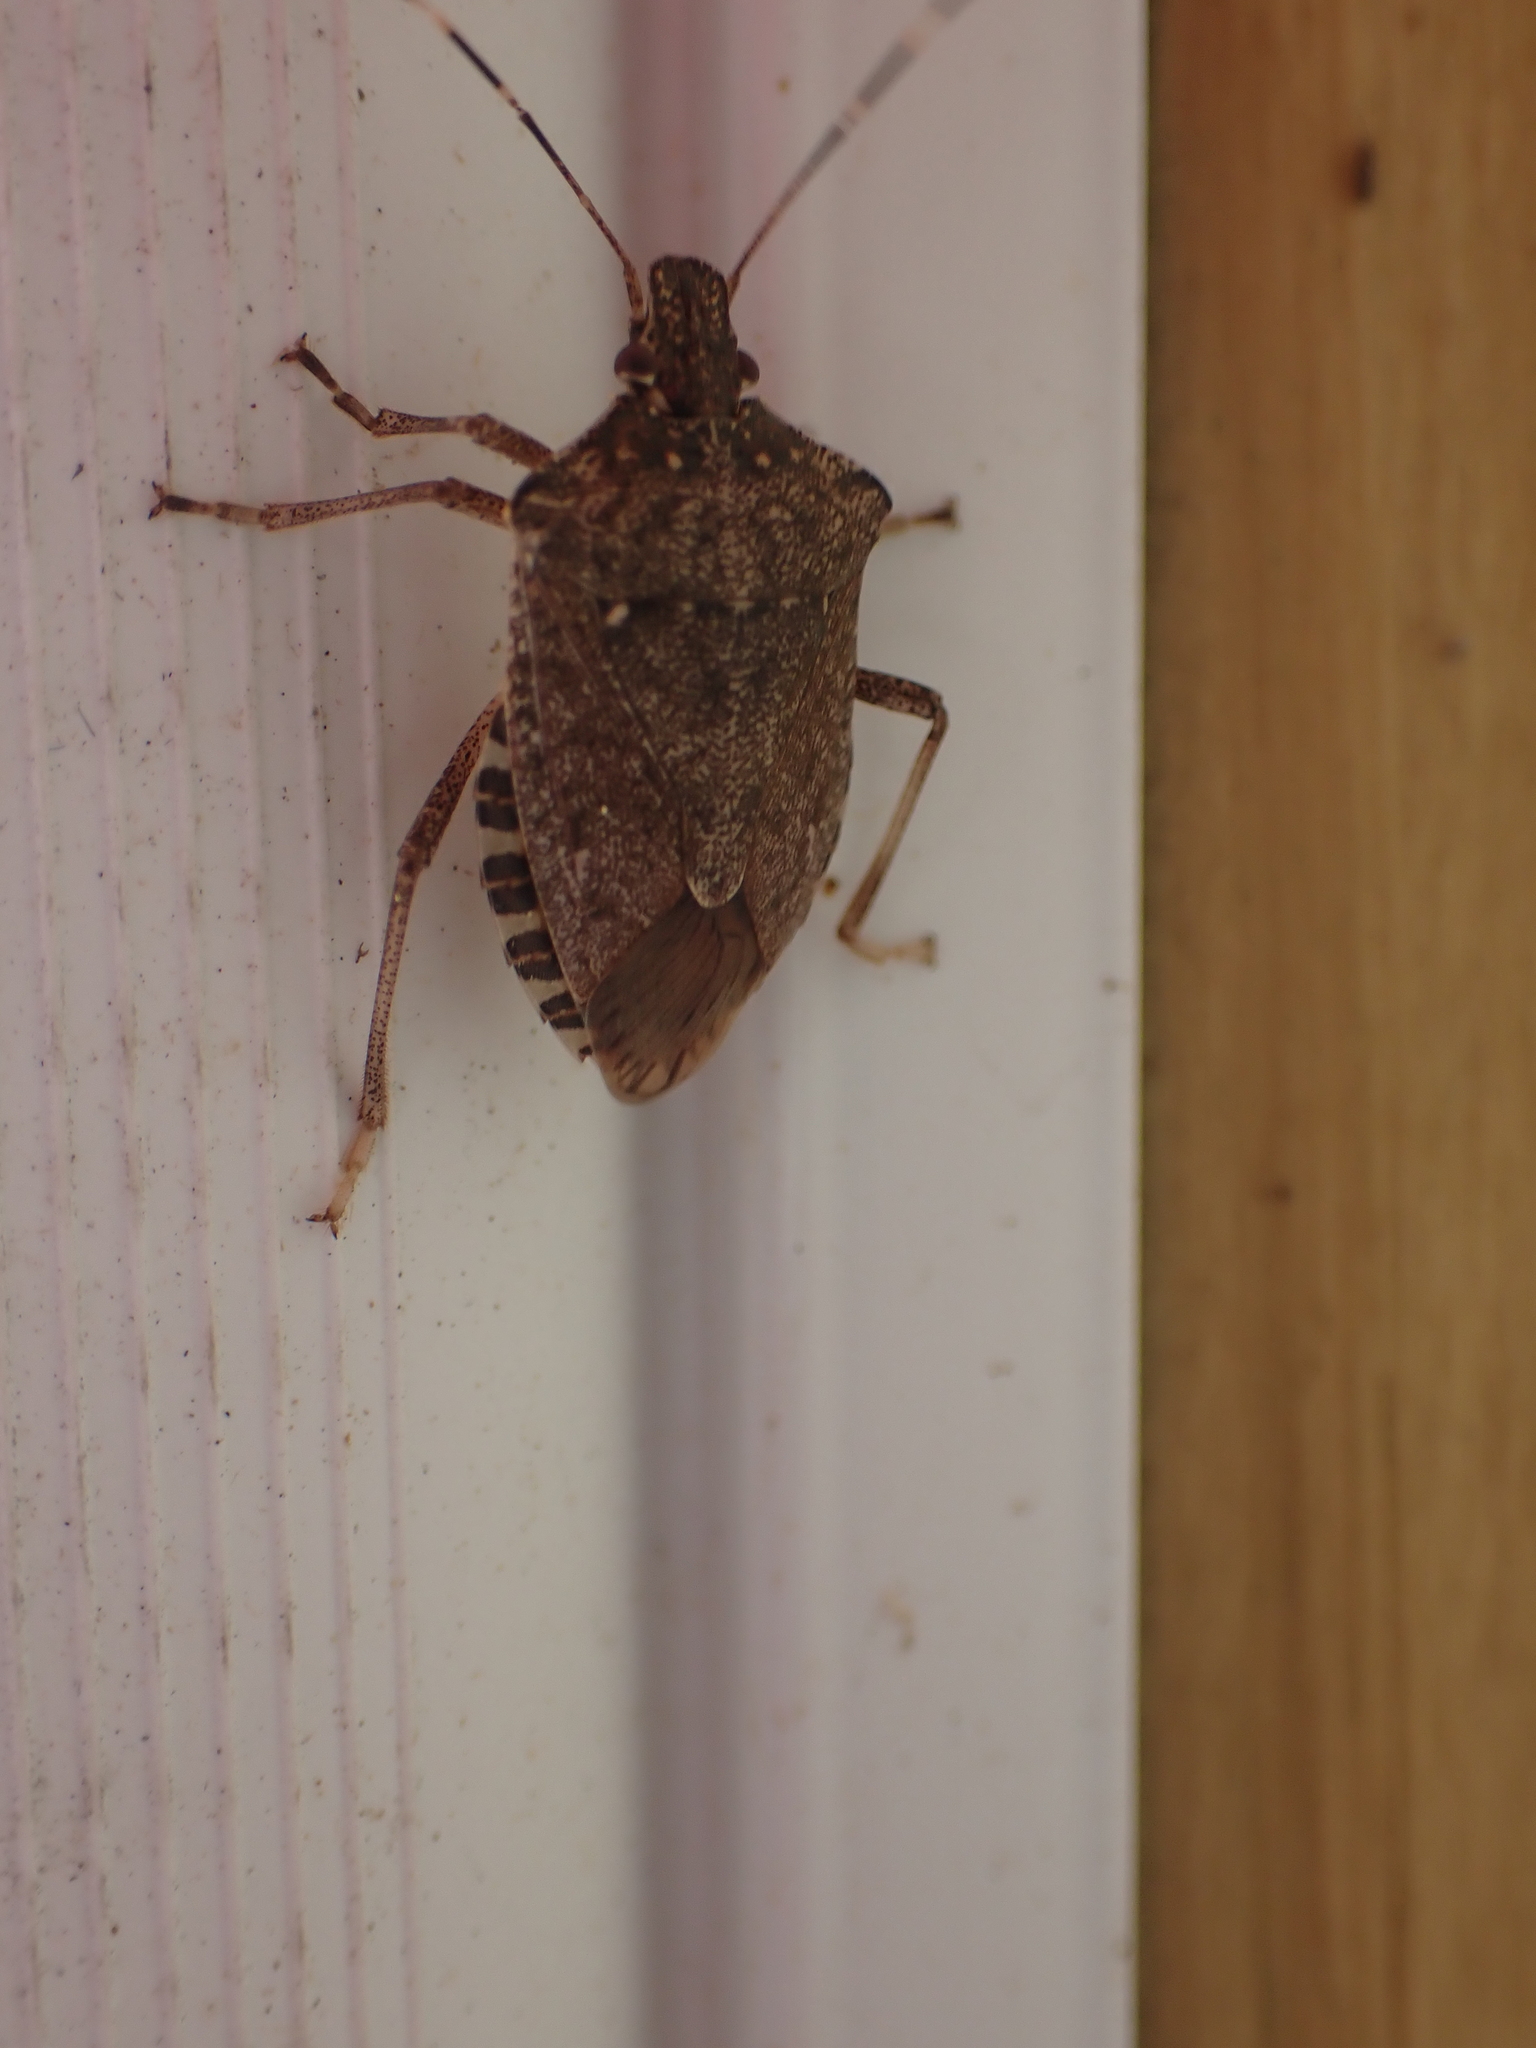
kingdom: Animalia
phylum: Arthropoda
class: Insecta
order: Hemiptera
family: Pentatomidae
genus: Halyomorpha
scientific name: Halyomorpha halys
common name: Brown marmorated stink bug
